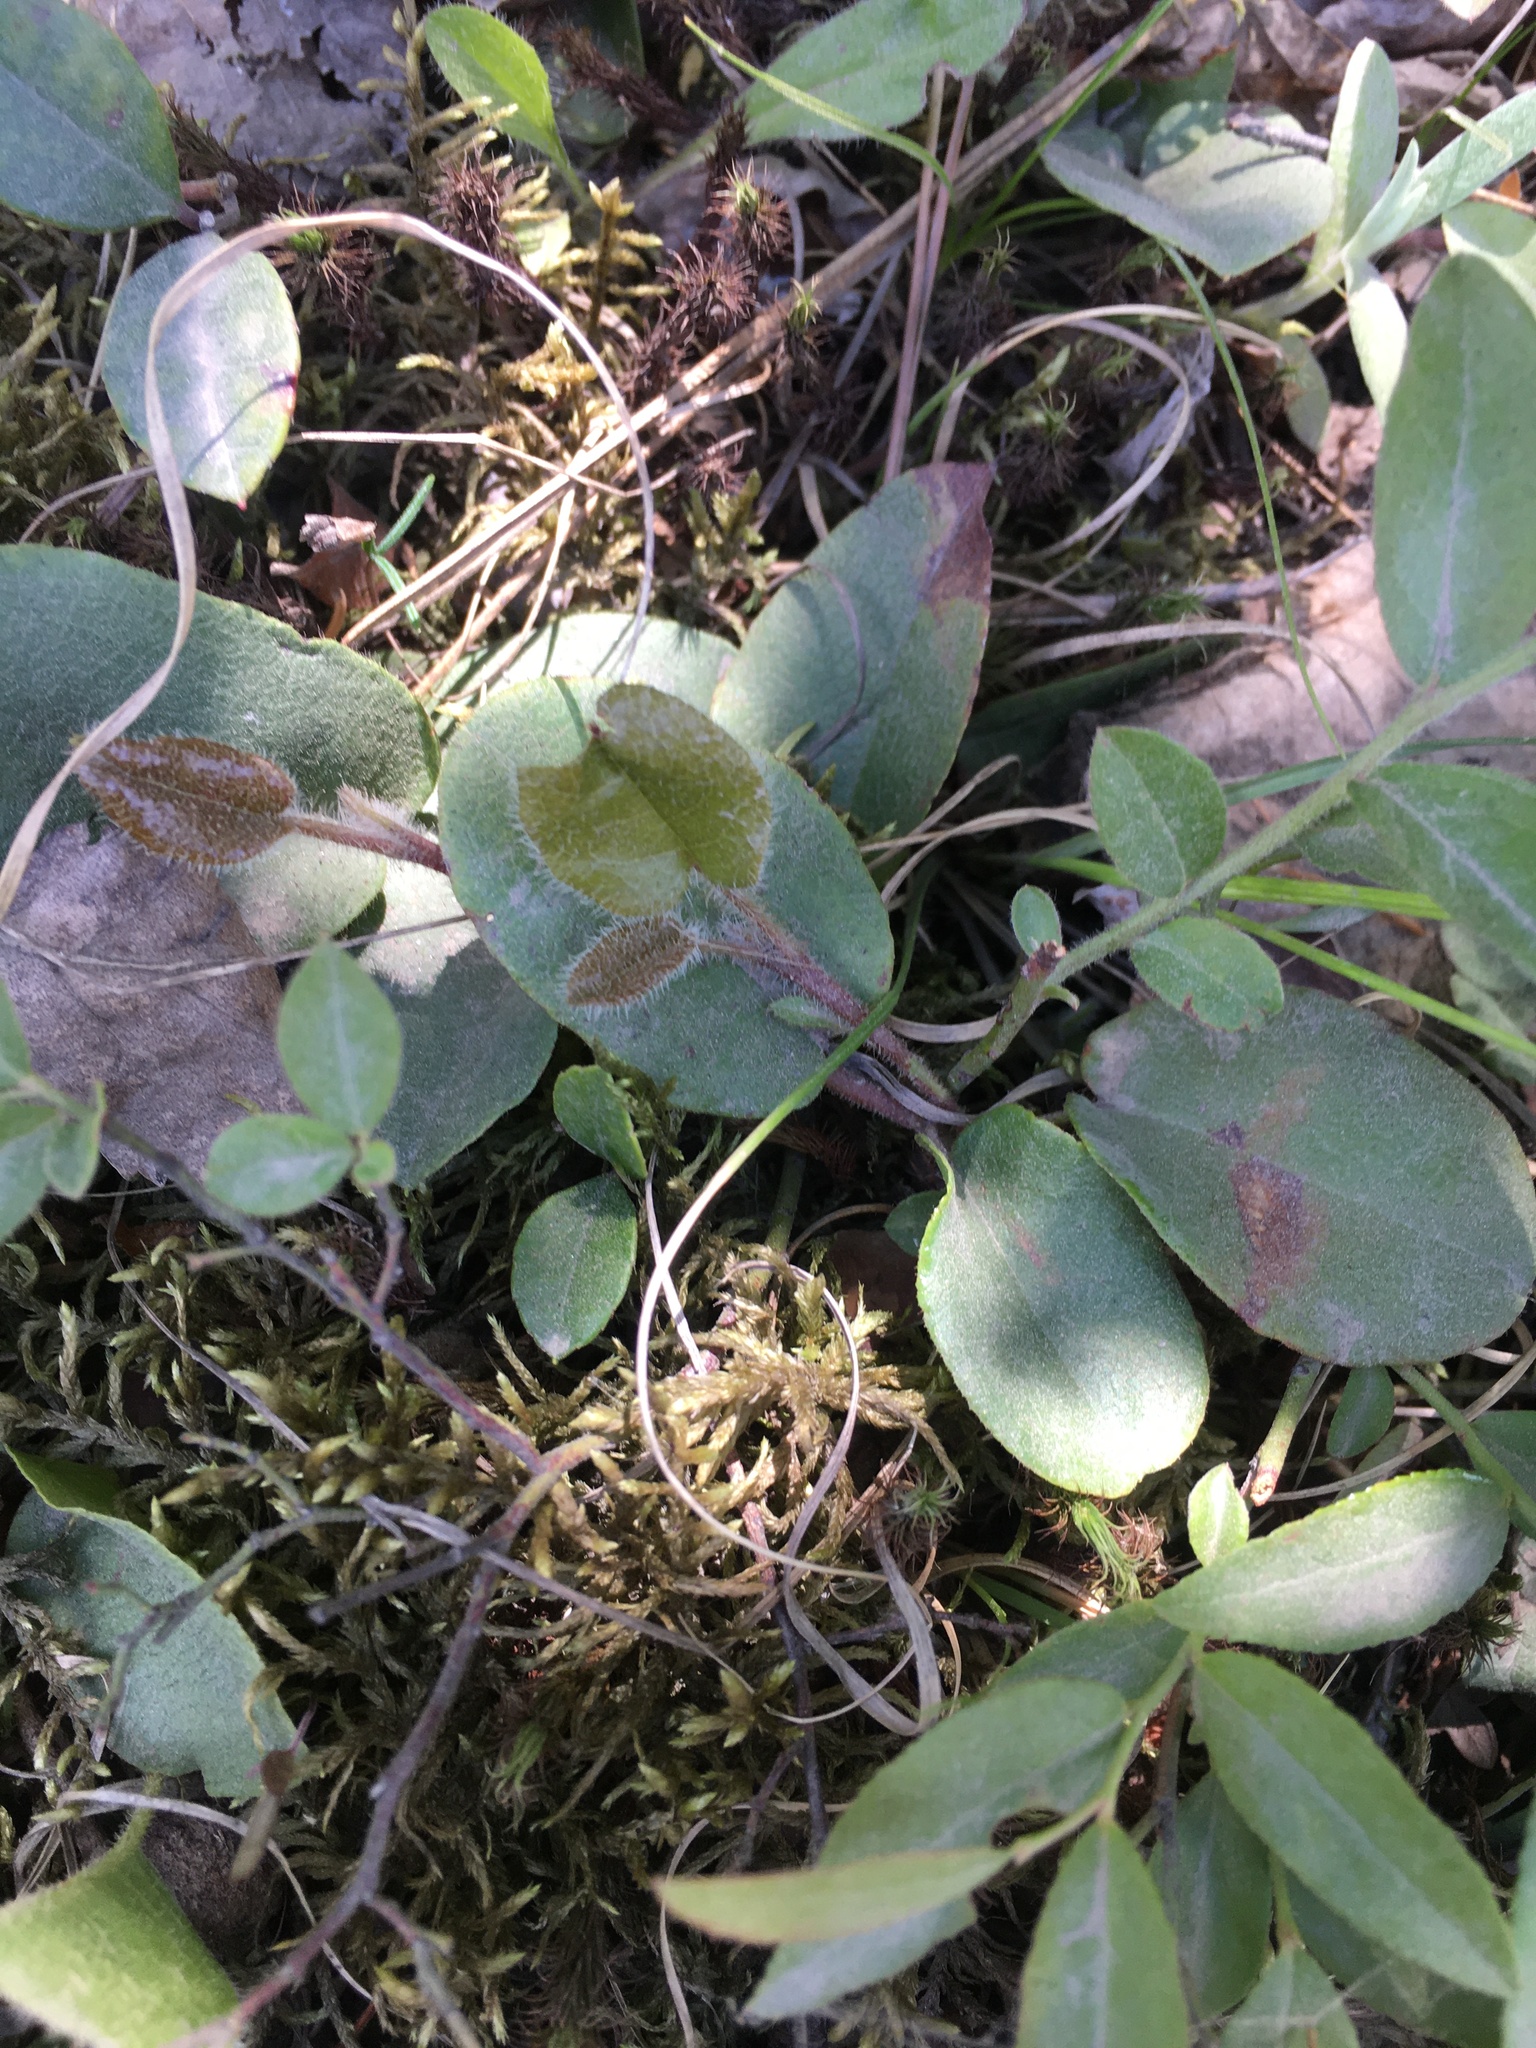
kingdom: Plantae
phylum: Tracheophyta
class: Magnoliopsida
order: Ericales
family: Ericaceae
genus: Epigaea
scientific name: Epigaea repens
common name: Gravelroot
